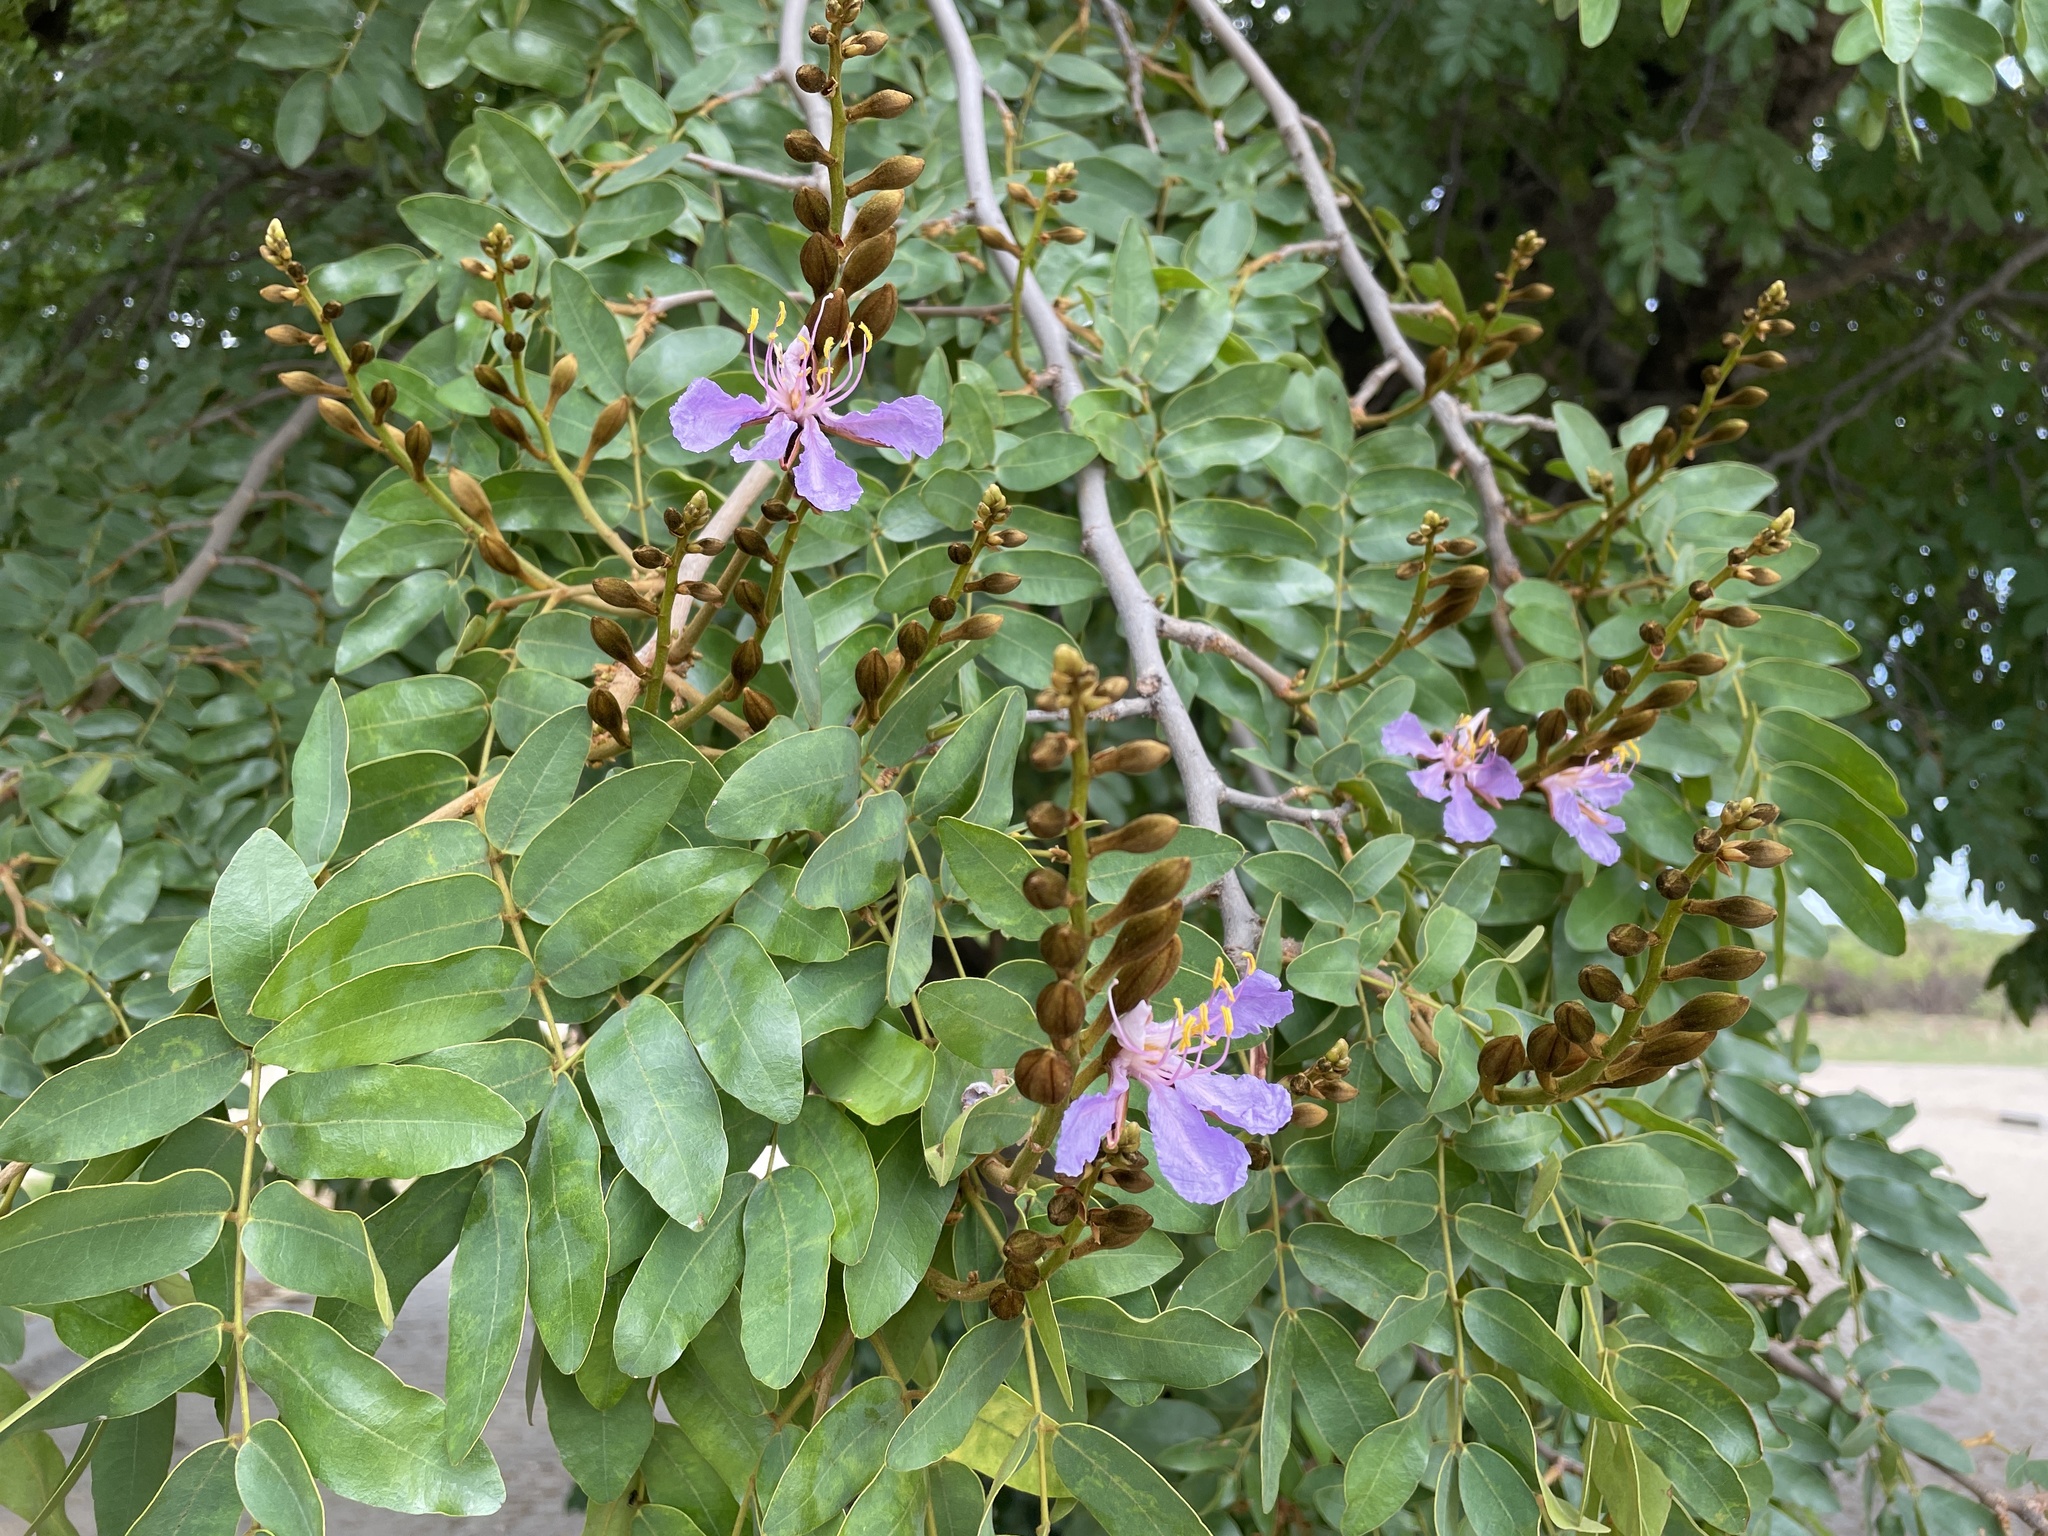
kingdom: Plantae
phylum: Tracheophyta
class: Magnoliopsida
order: Fabales
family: Fabaceae
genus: Baikiaea
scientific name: Baikiaea plurijuga
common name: Rhodesian-teak
